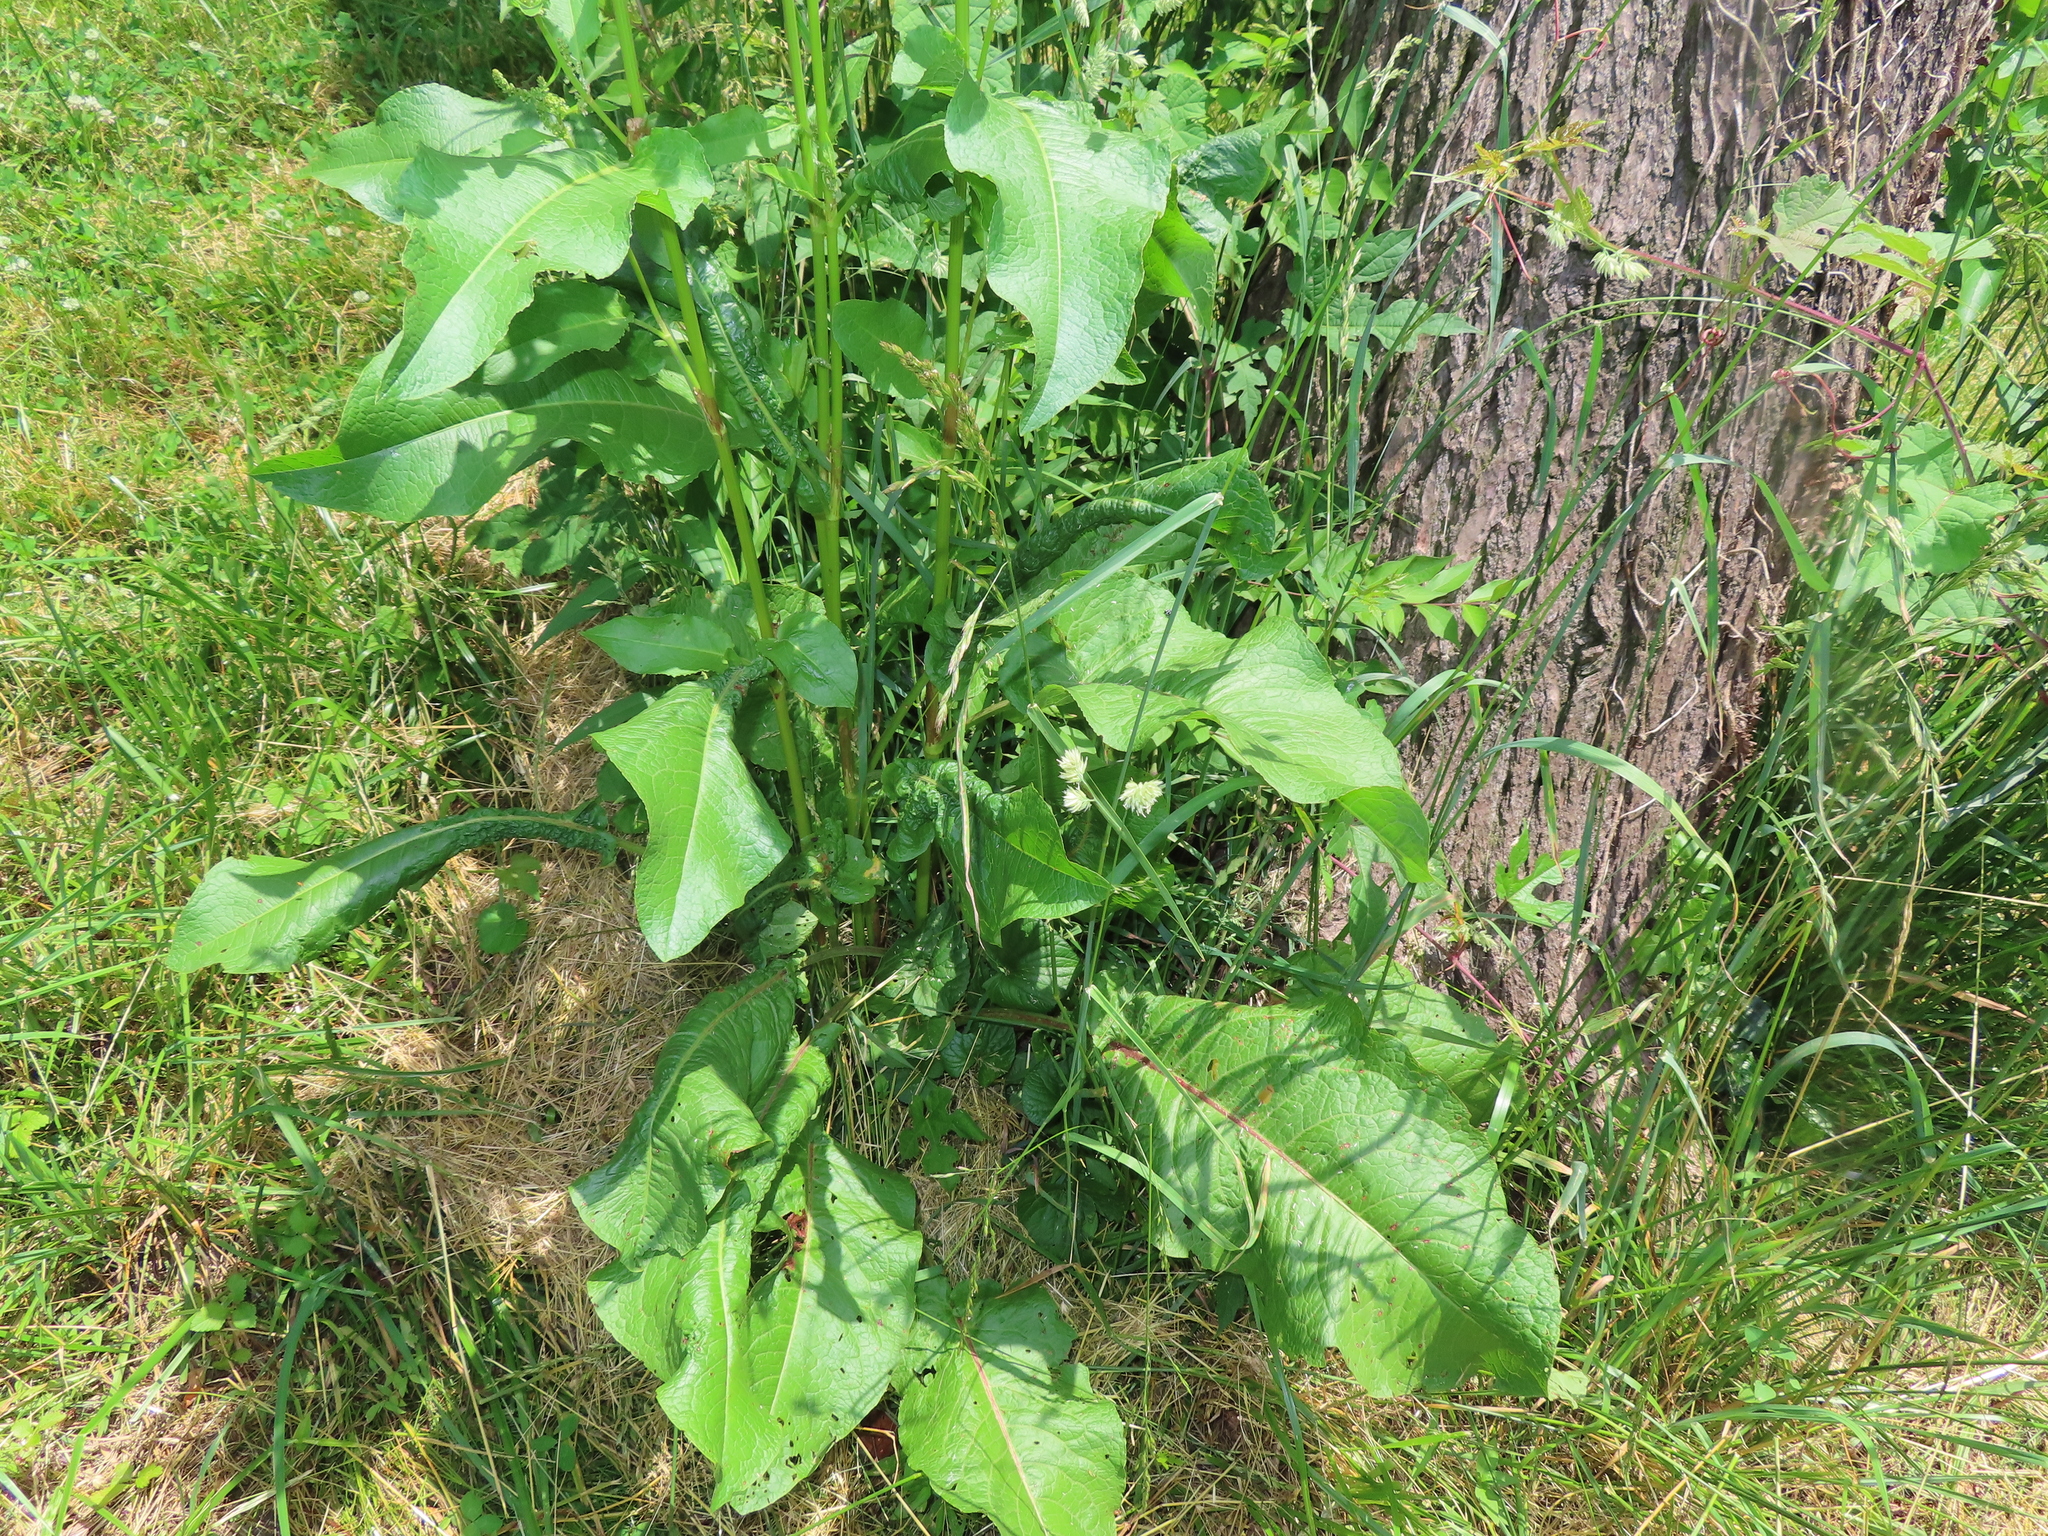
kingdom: Plantae
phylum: Tracheophyta
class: Magnoliopsida
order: Caryophyllales
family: Polygonaceae
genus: Rumex
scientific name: Rumex altissimus
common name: Smooth dock
